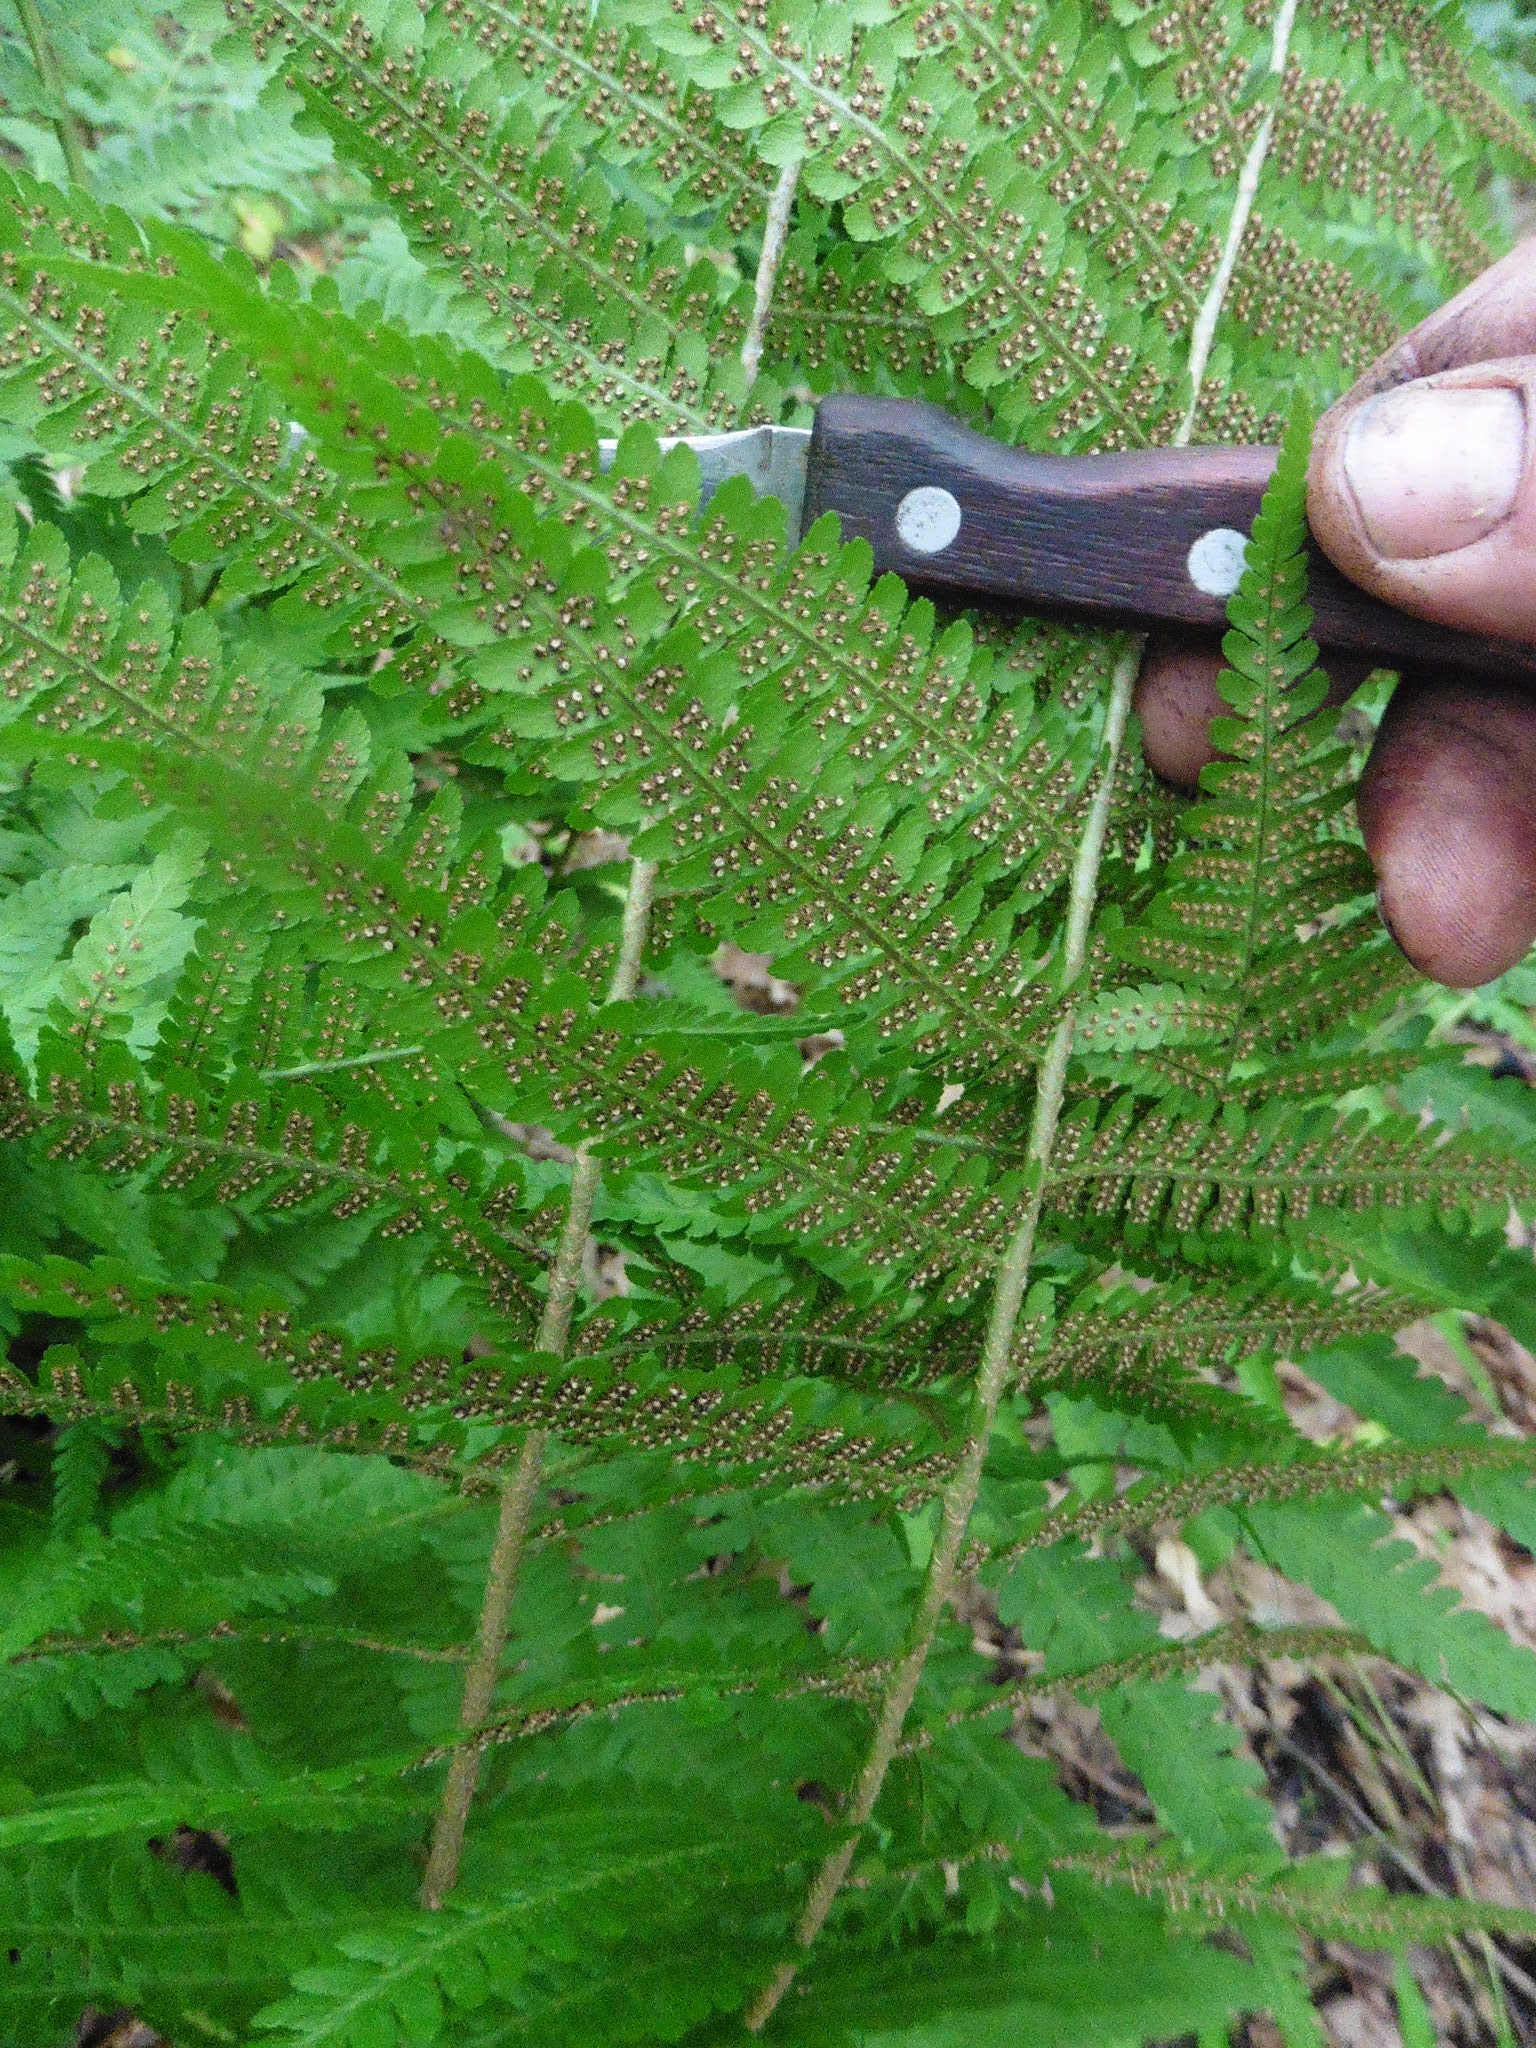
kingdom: Plantae
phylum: Tracheophyta
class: Polypodiopsida
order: Polypodiales
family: Dryopteridaceae
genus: Dryopteris
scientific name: Dryopteris filix-mas
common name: Male fern
